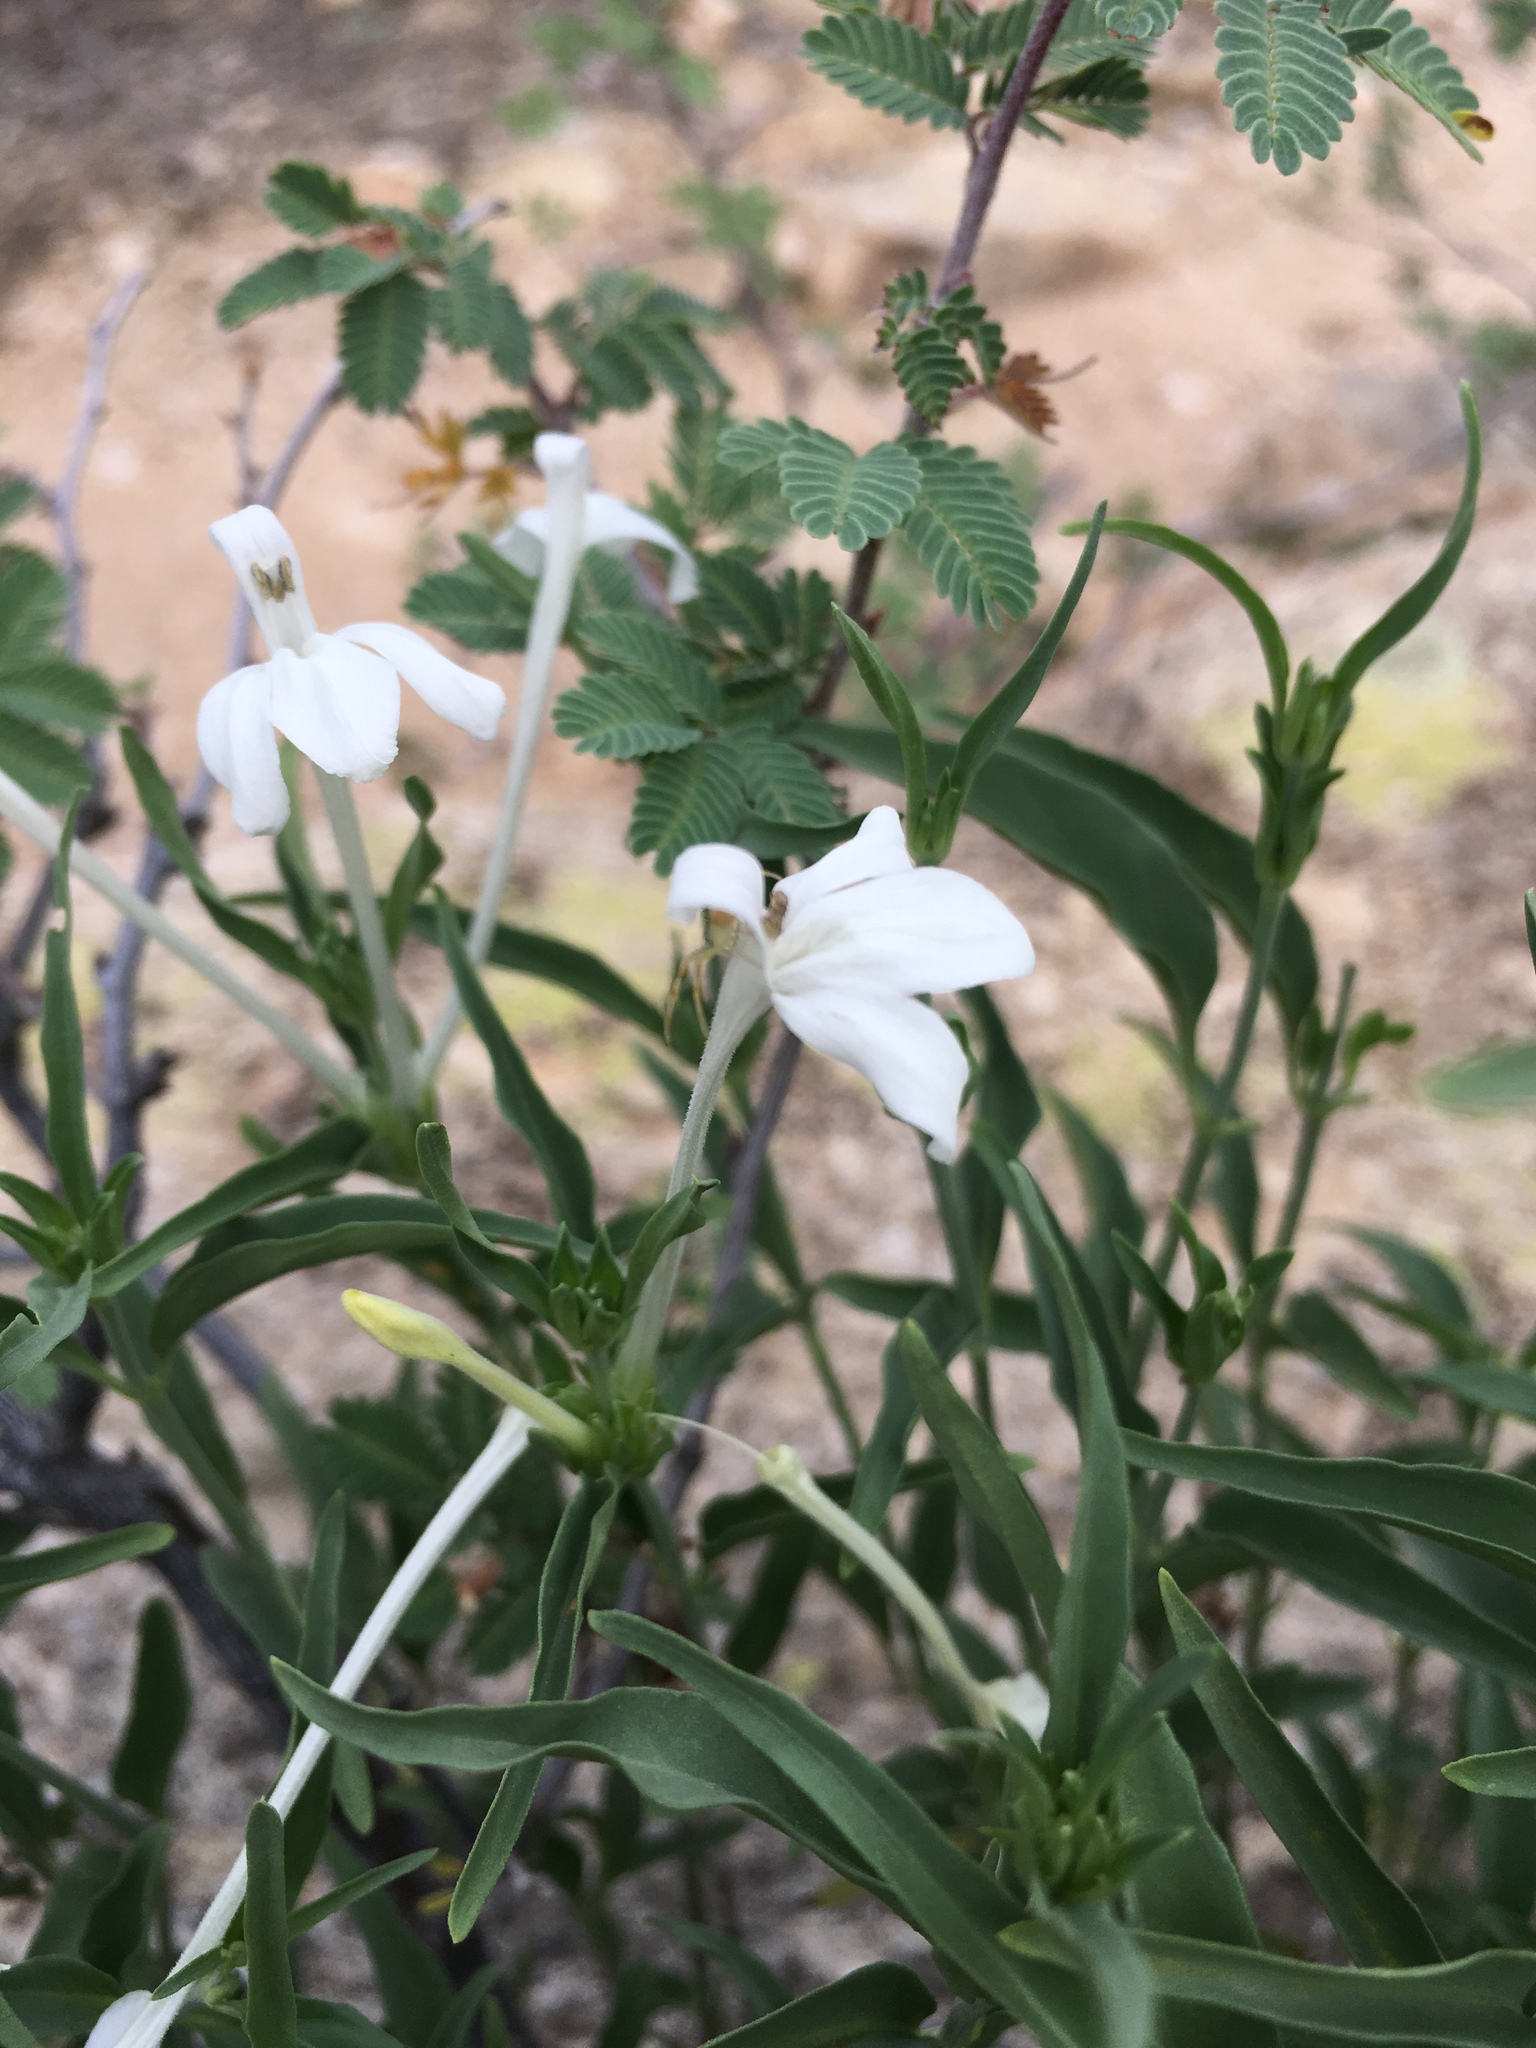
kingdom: Plantae
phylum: Tracheophyta
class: Magnoliopsida
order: Lamiales
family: Acanthaceae
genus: Justicia
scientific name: Justicia longii
